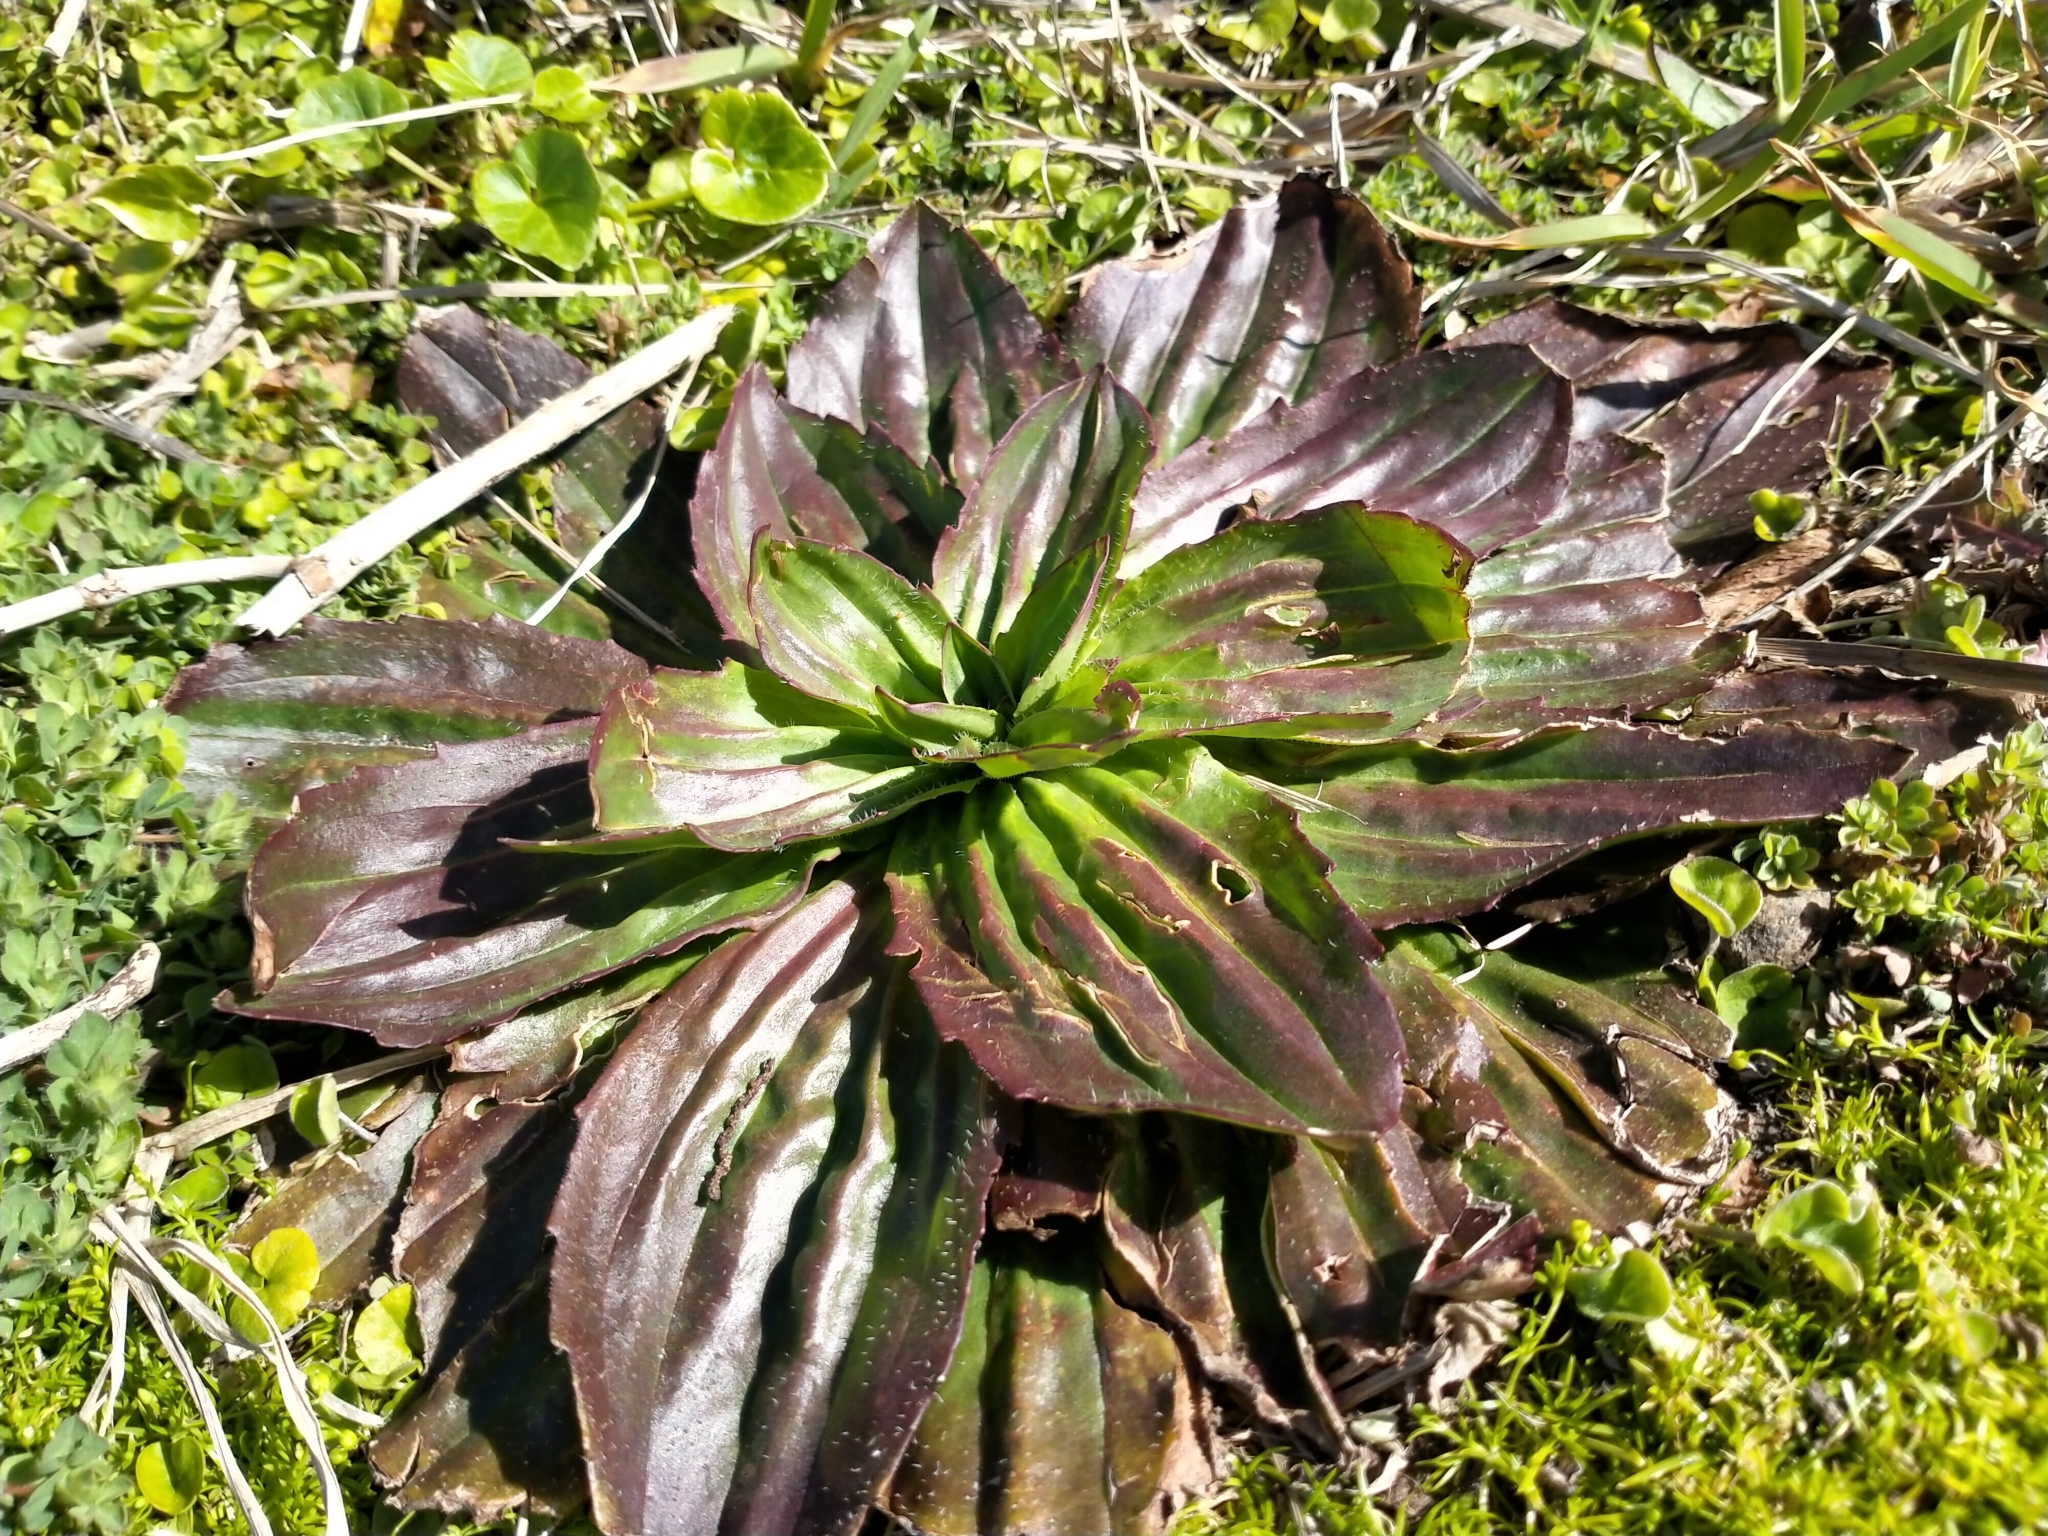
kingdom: Plantae
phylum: Tracheophyta
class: Magnoliopsida
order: Lamiales
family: Plantaginaceae
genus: Plantago
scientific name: Plantago australis
